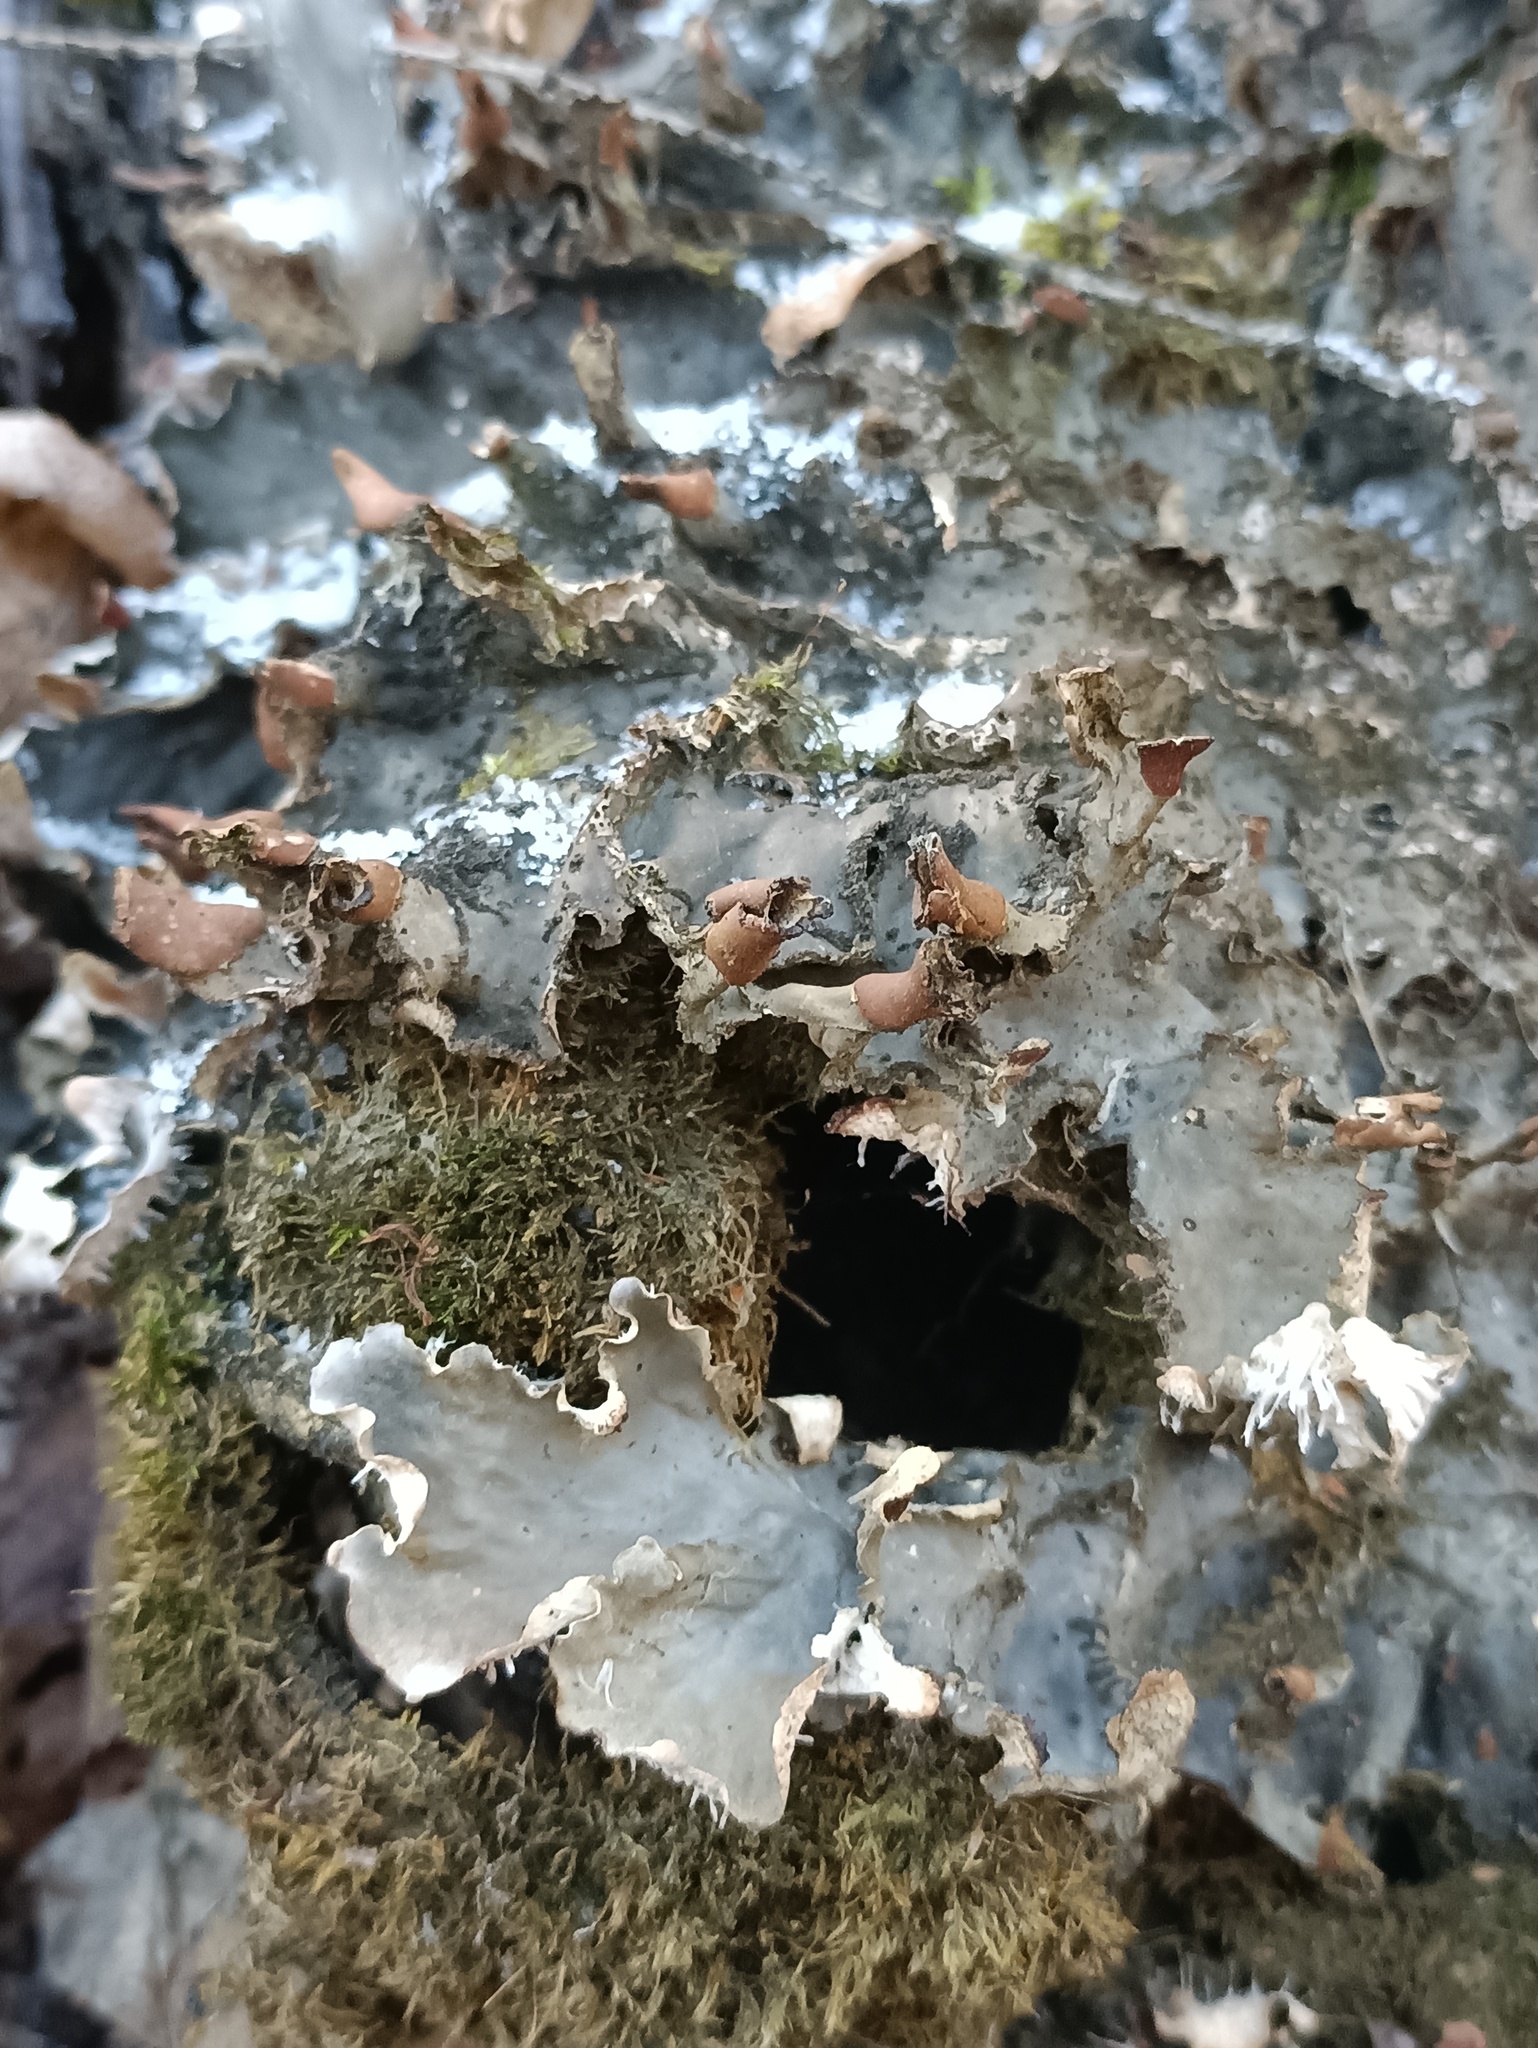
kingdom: Fungi
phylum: Ascomycota
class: Lecanoromycetes
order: Peltigerales
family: Peltigeraceae
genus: Peltigera
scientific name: Peltigera praetextata
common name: Scaly dog-lichen
